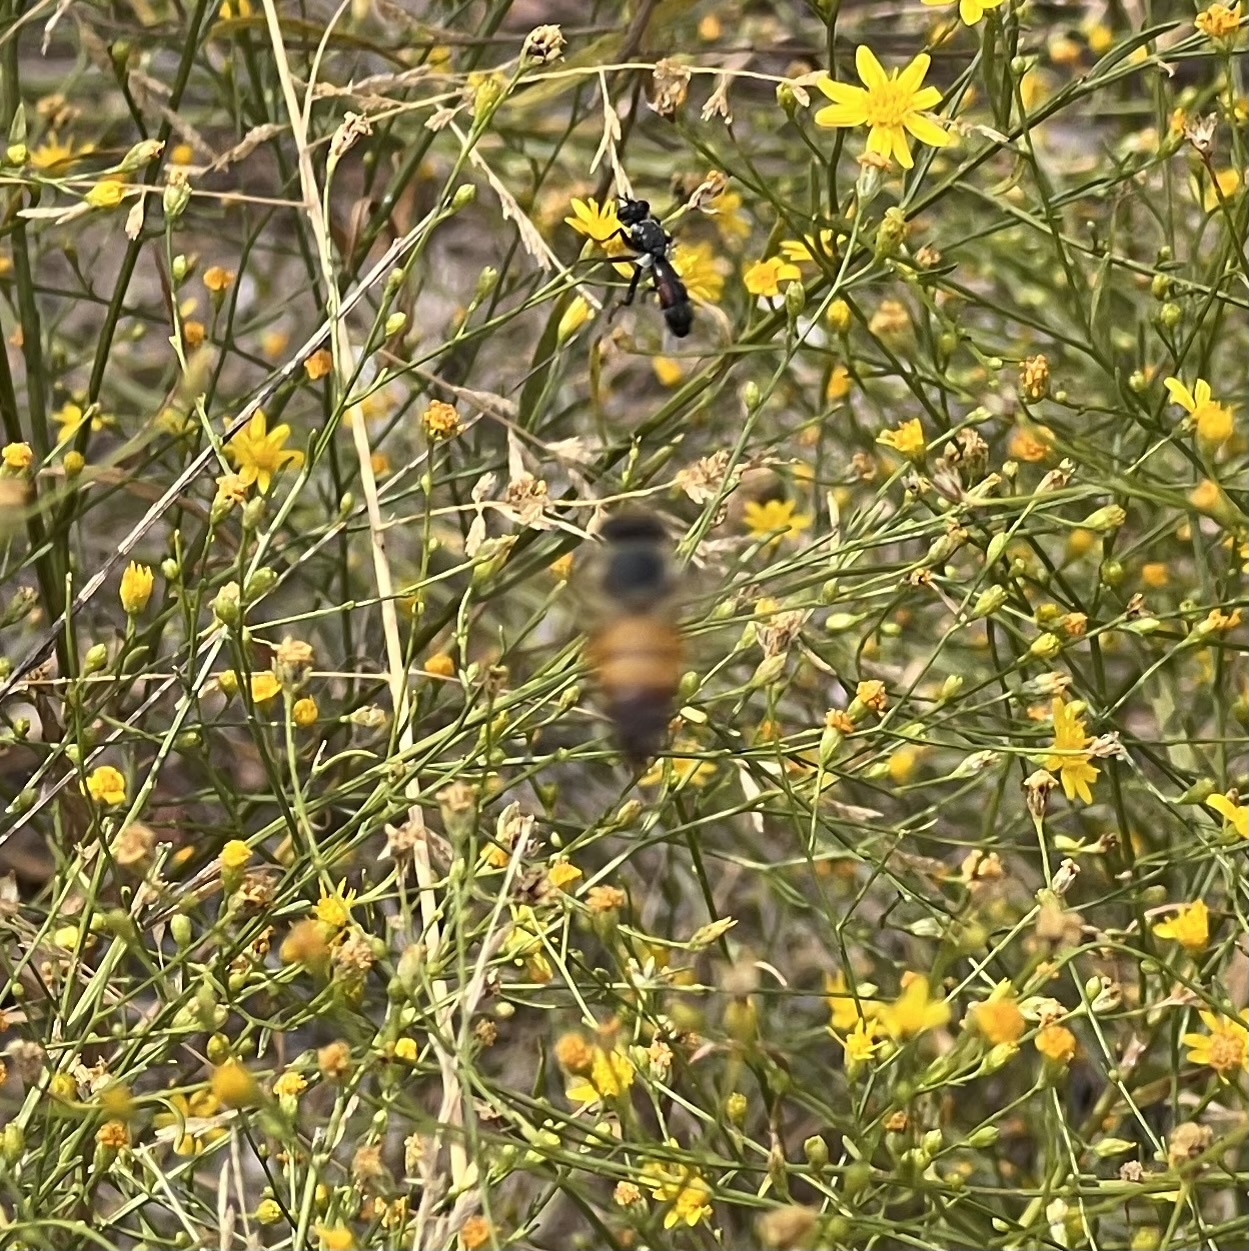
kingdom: Animalia
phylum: Arthropoda
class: Insecta
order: Hymenoptera
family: Apidae
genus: Apis
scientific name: Apis mellifera
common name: Honey bee
